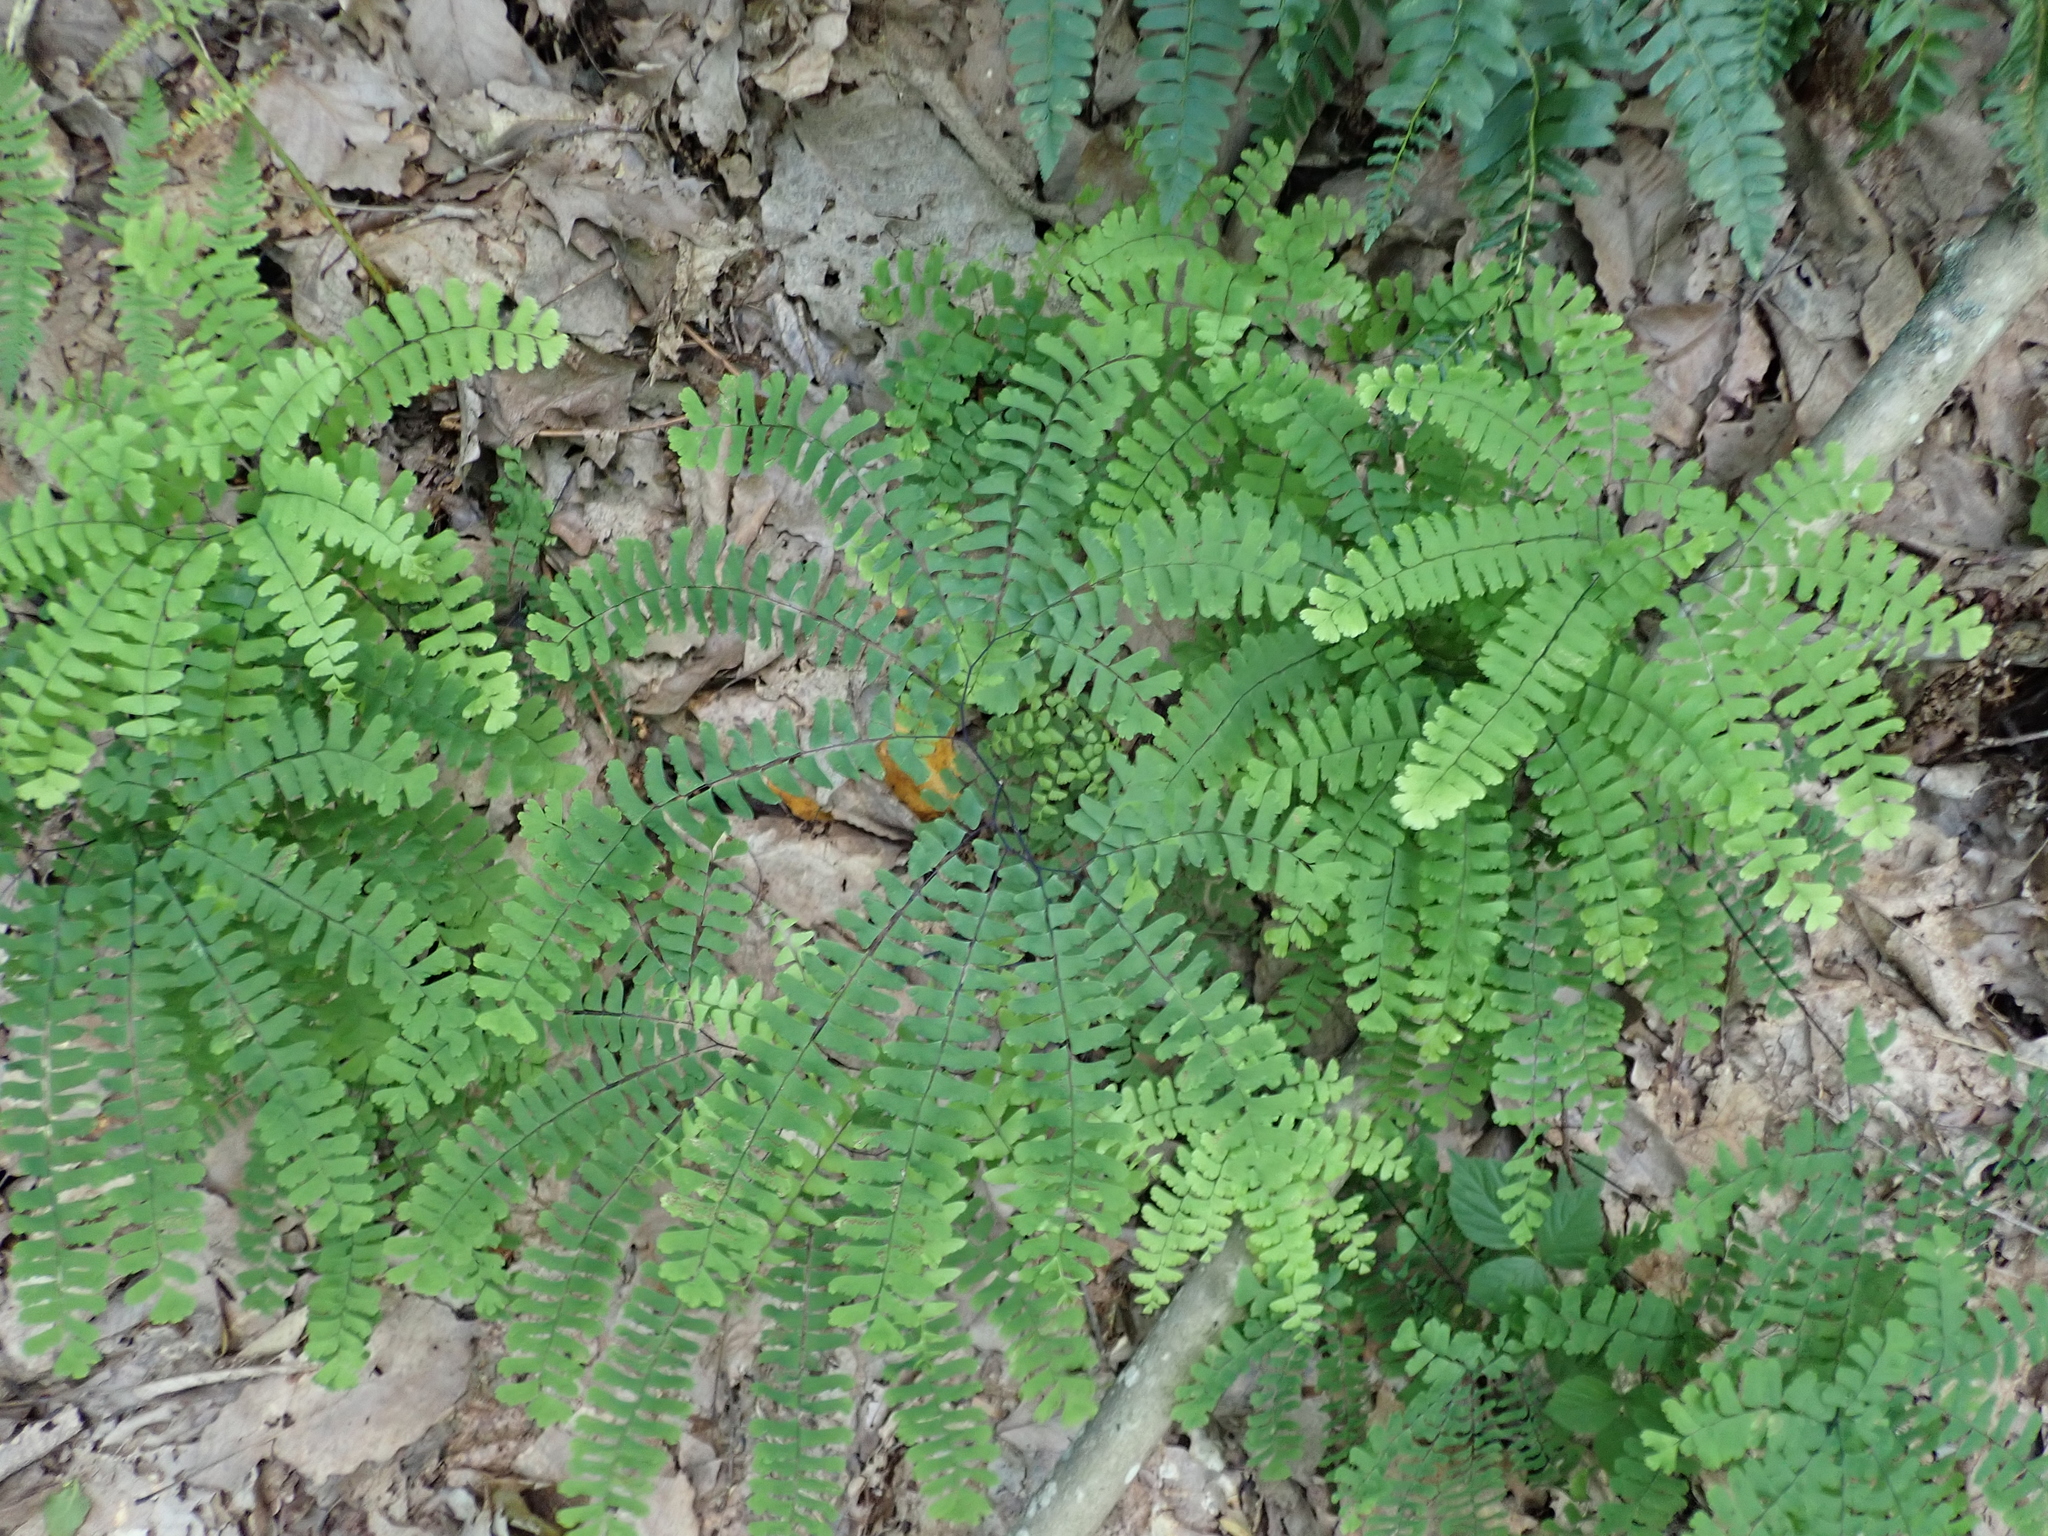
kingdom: Plantae
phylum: Tracheophyta
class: Polypodiopsida
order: Polypodiales
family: Pteridaceae
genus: Adiantum
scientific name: Adiantum pedatum
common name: Five-finger fern
